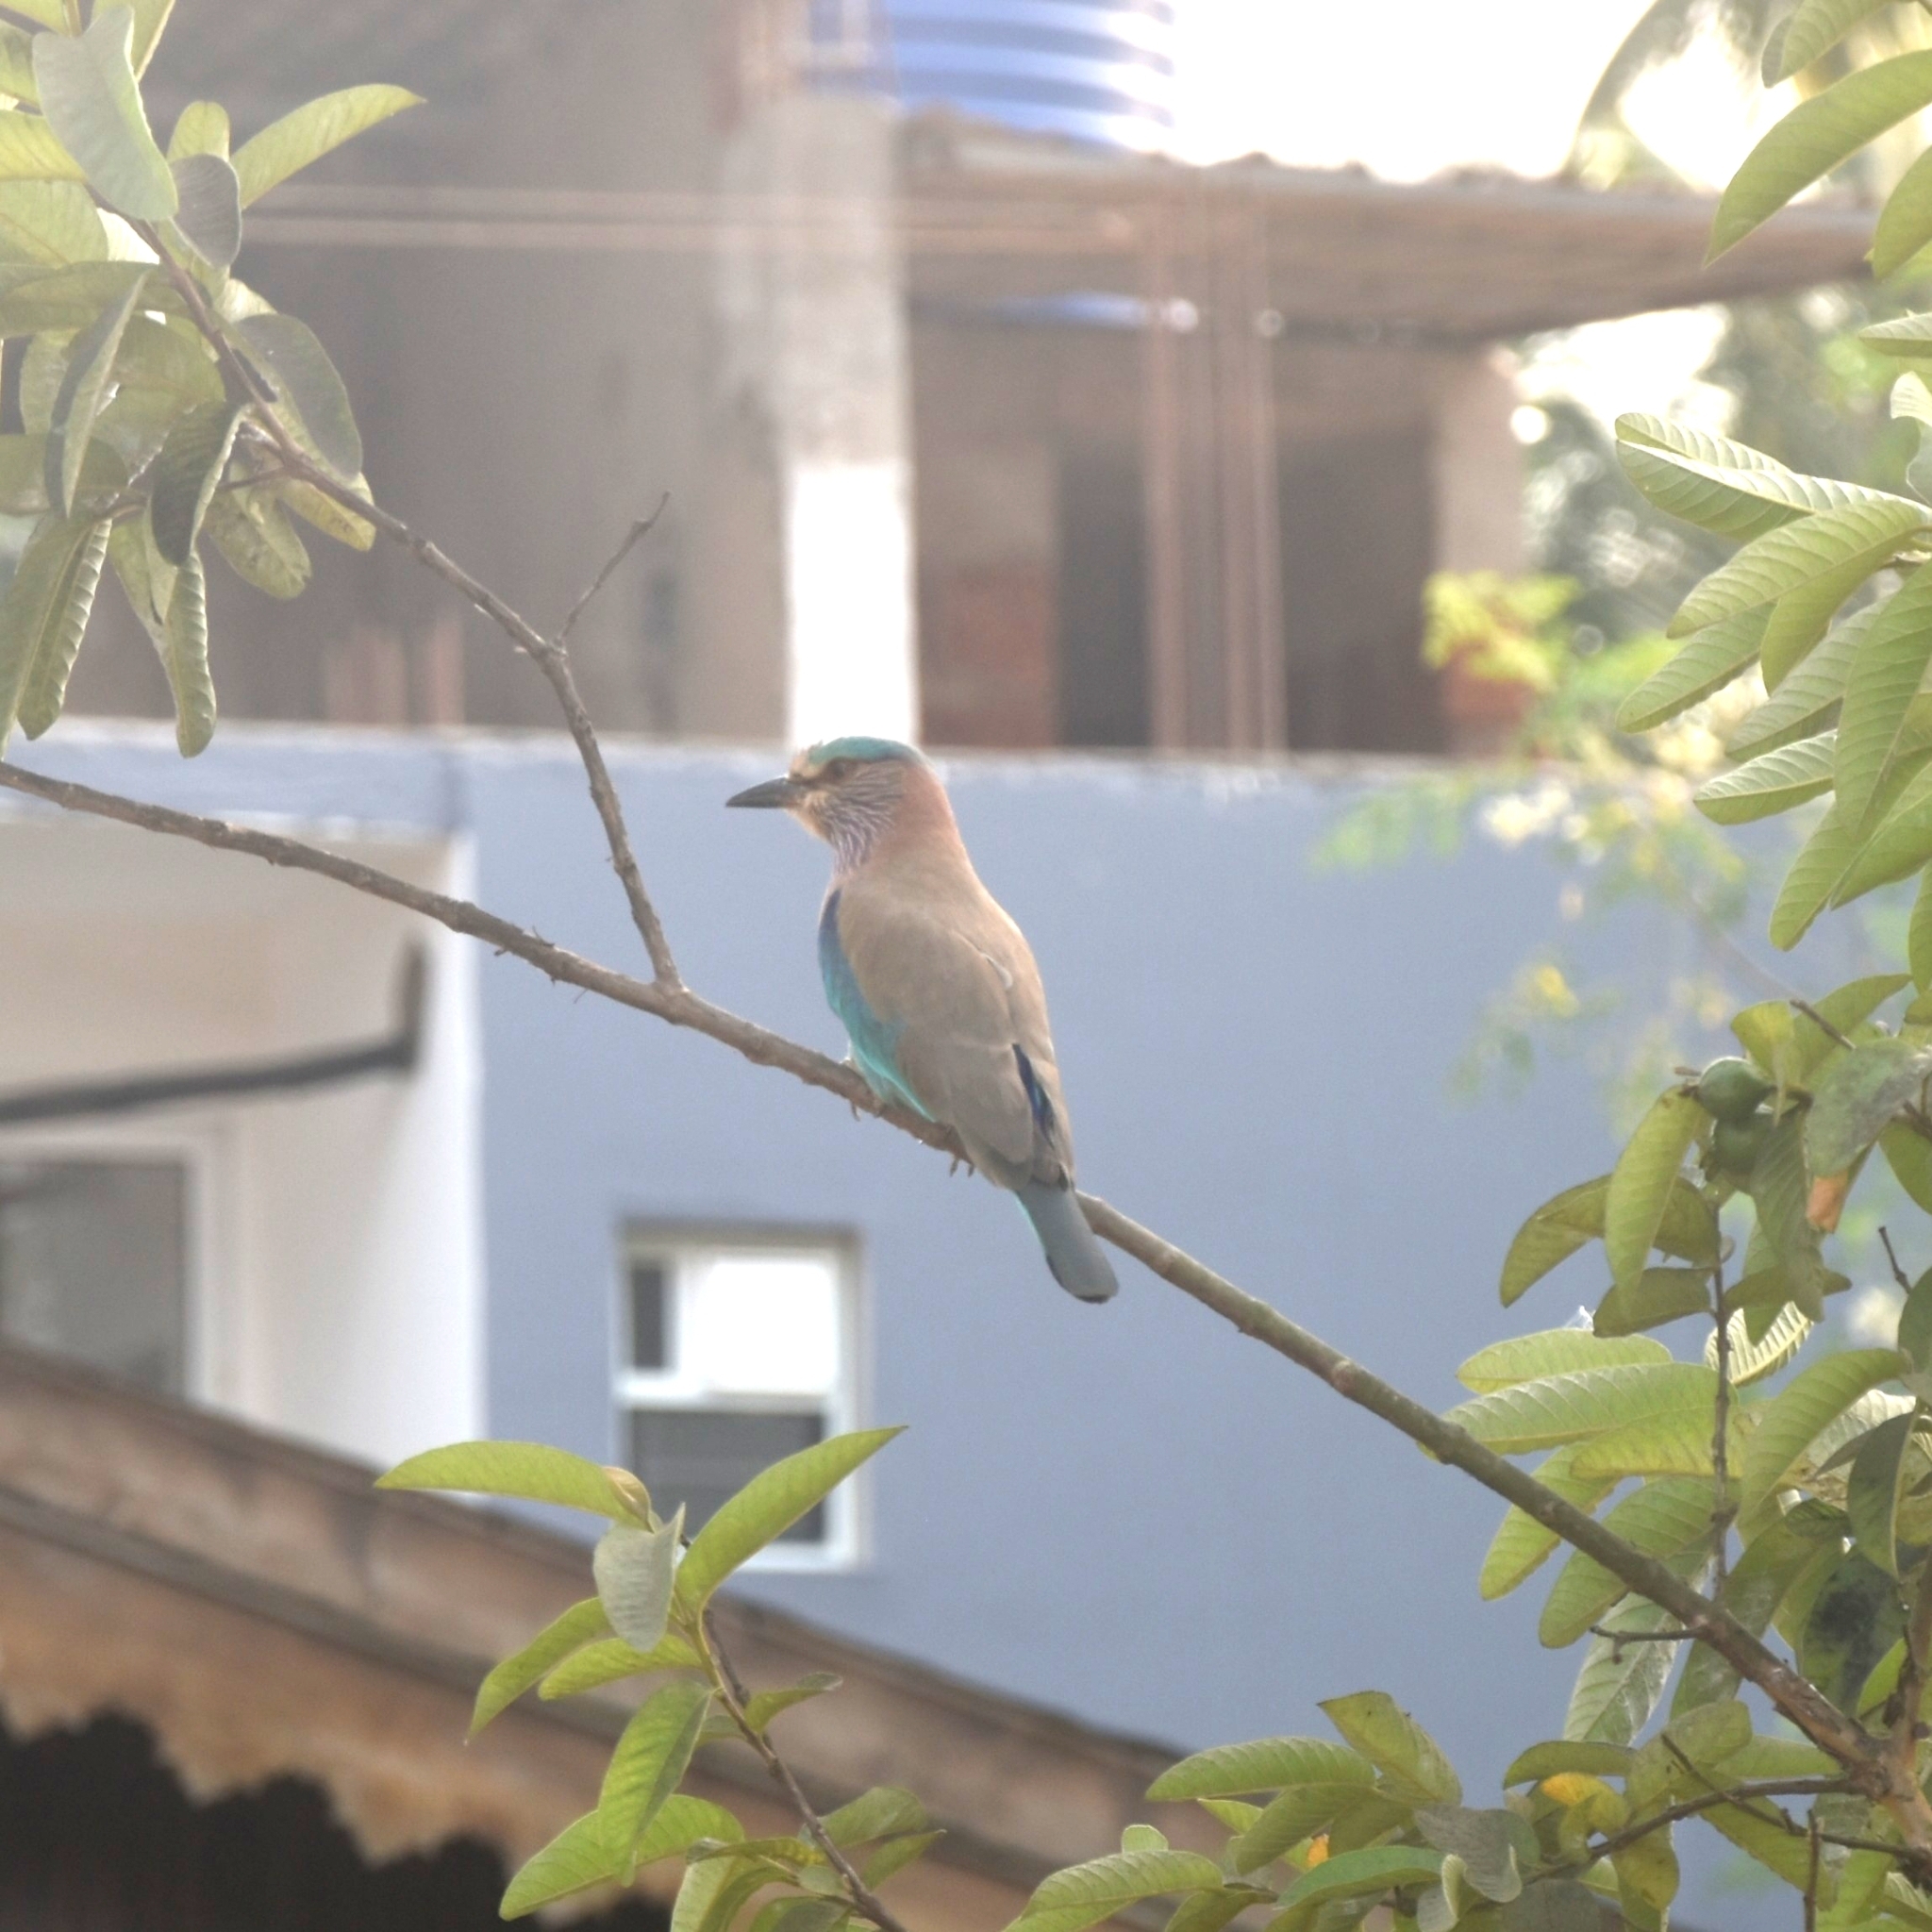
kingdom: Animalia
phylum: Chordata
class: Aves
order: Coraciiformes
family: Coraciidae
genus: Coracias
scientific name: Coracias benghalensis
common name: Indian roller
